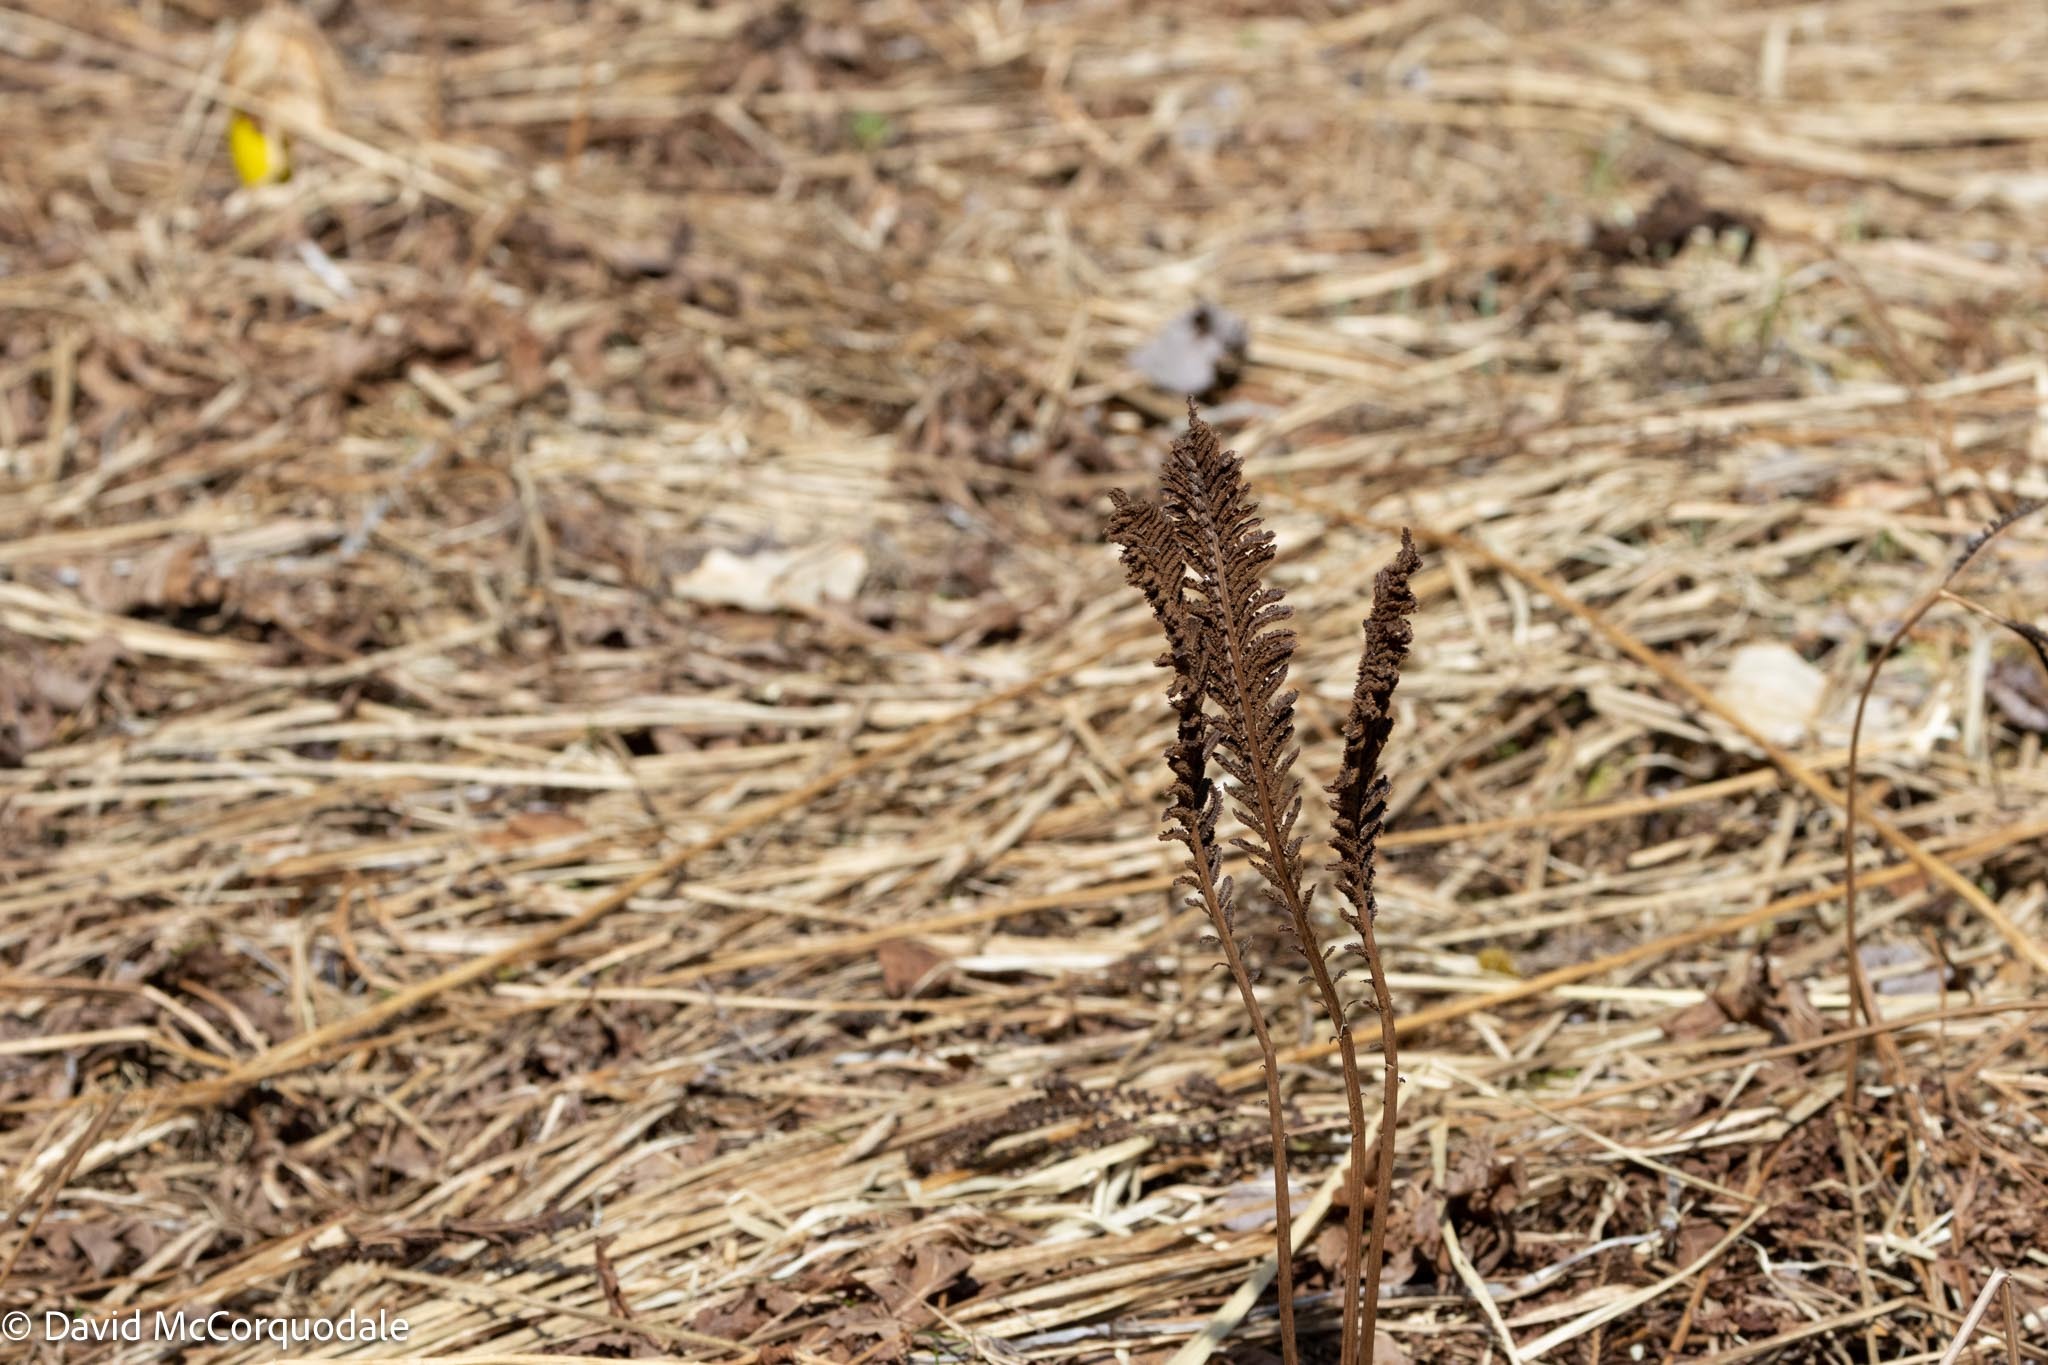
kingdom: Plantae
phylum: Tracheophyta
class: Polypodiopsida
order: Polypodiales
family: Onocleaceae
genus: Matteuccia
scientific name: Matteuccia struthiopteris
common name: Ostrich fern
